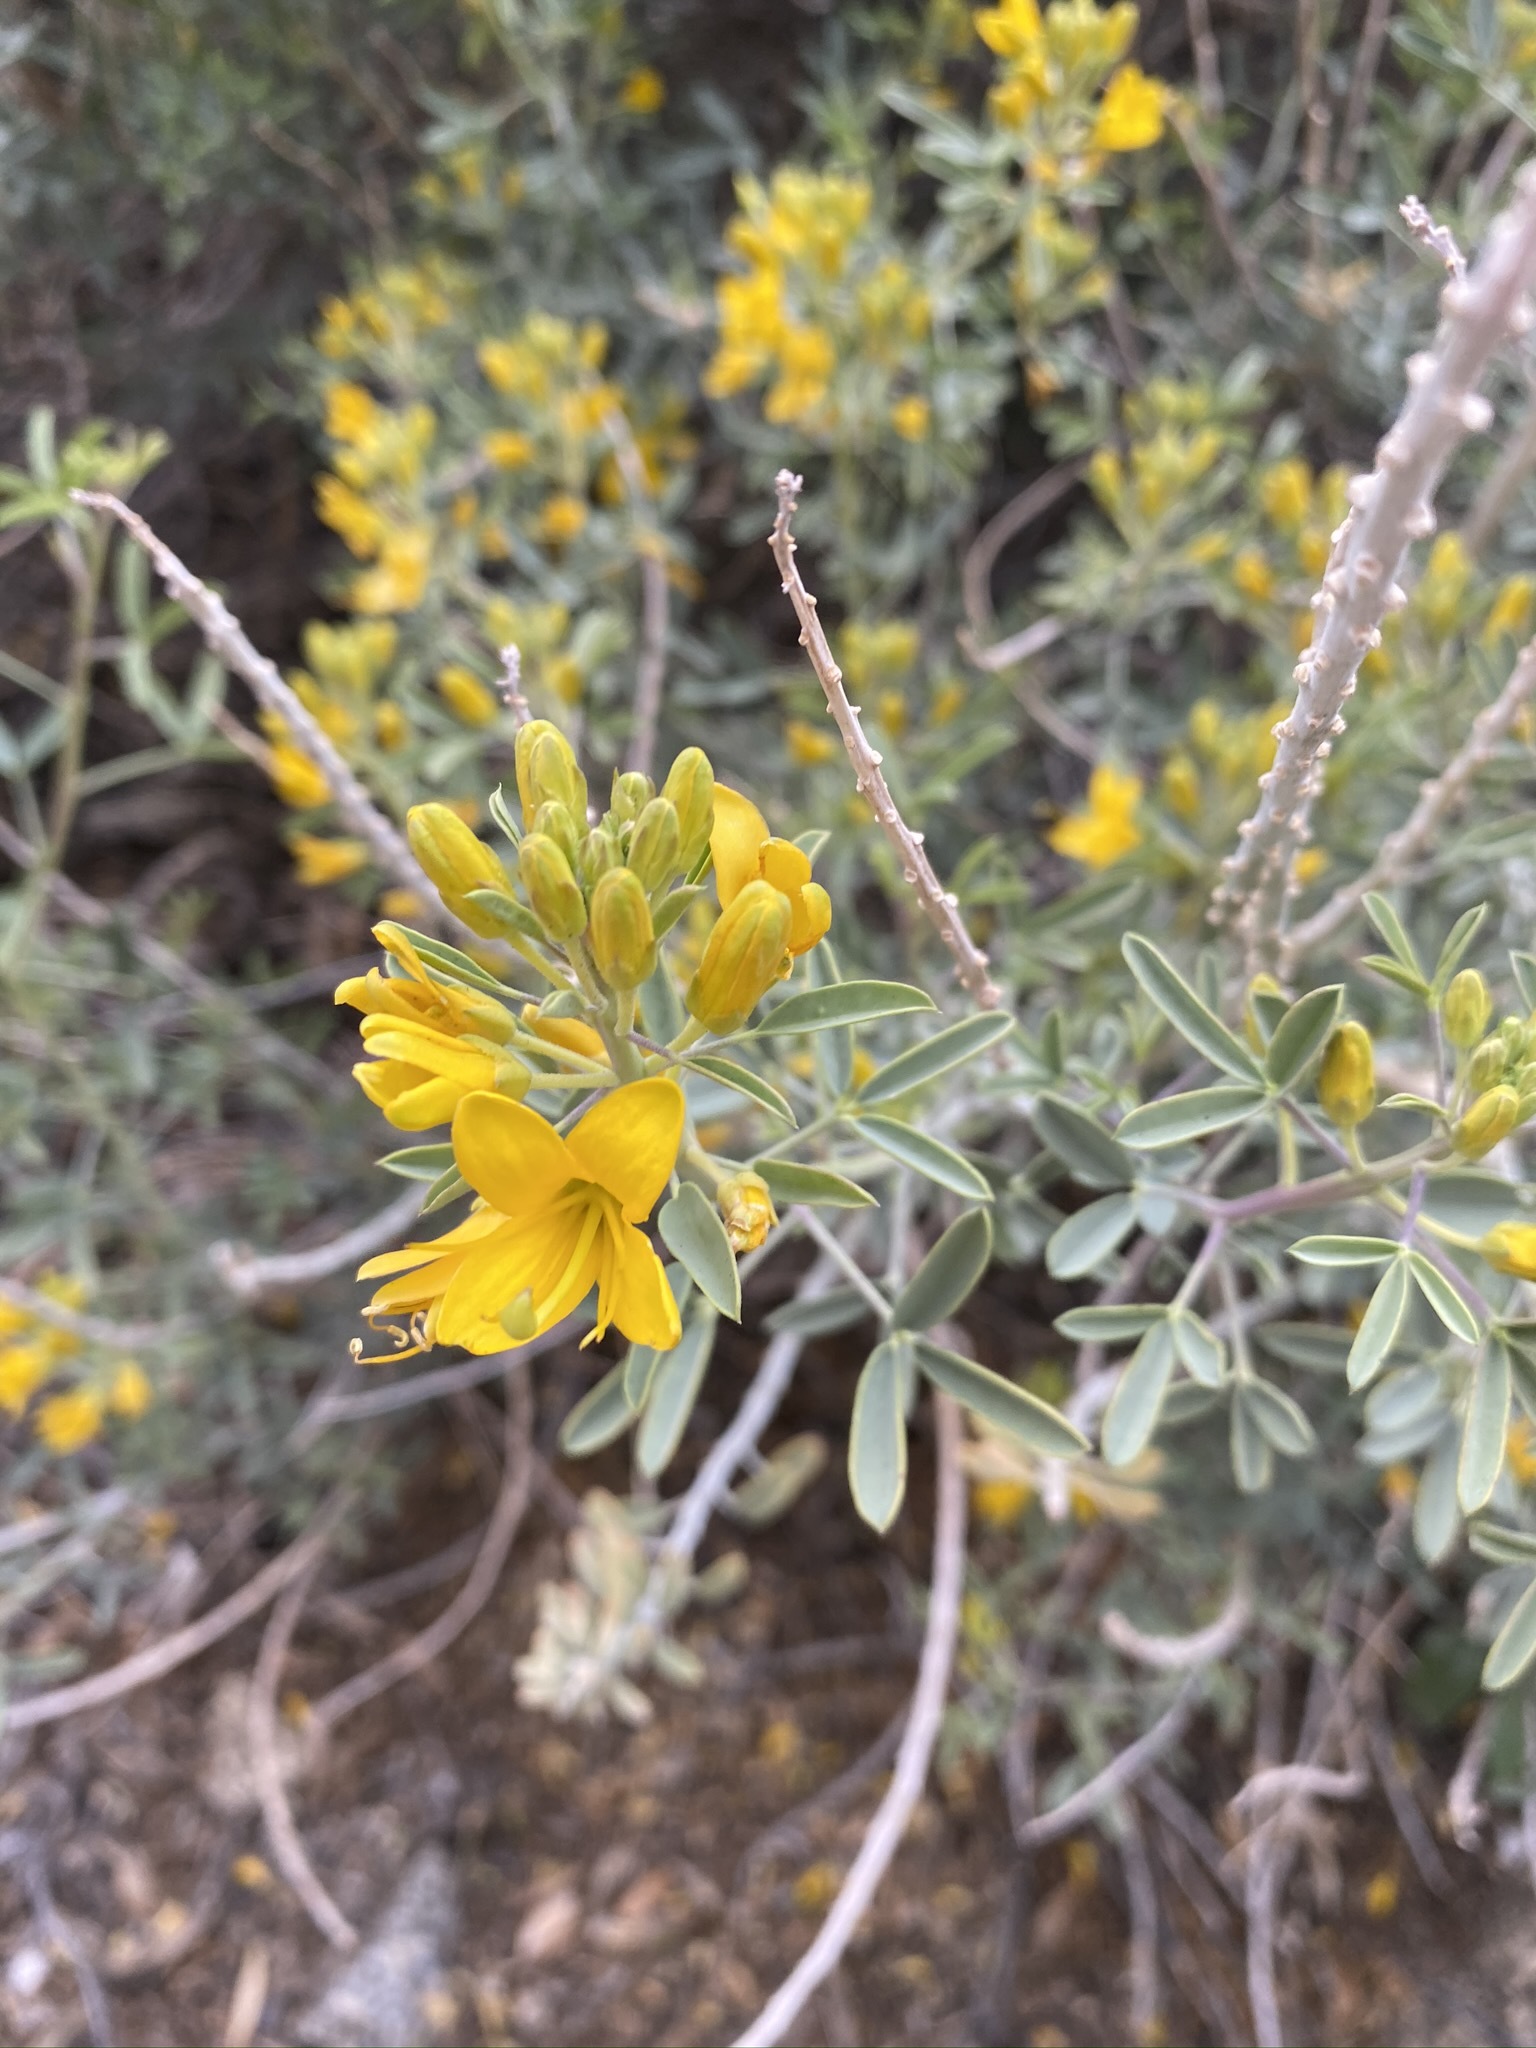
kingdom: Plantae
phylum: Tracheophyta
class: Magnoliopsida
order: Brassicales
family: Cleomaceae
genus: Cleomella
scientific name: Cleomella arborea
